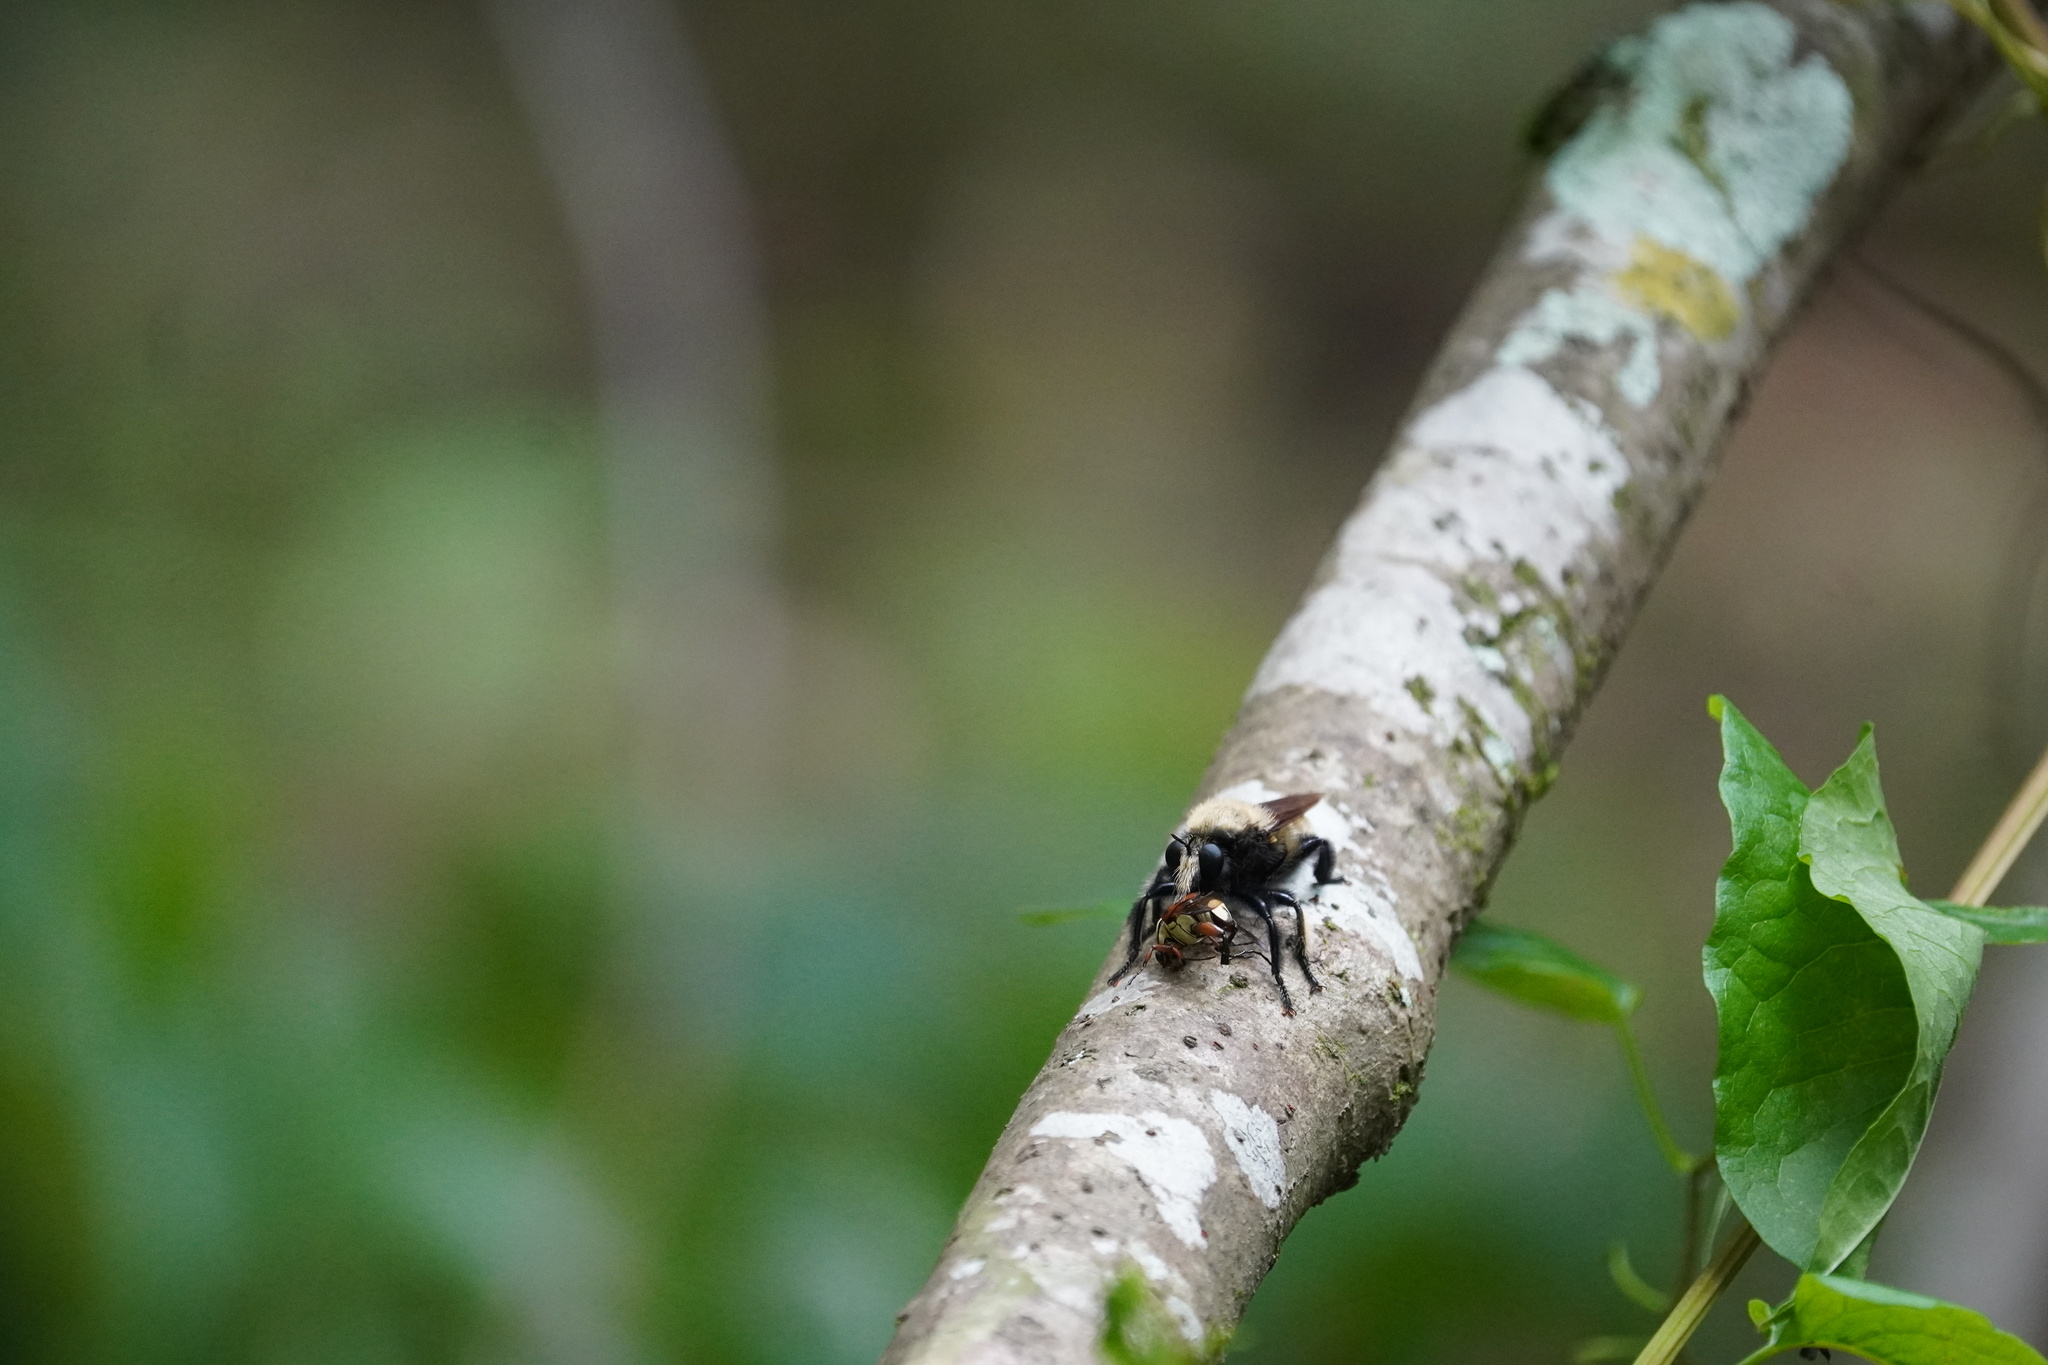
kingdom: Animalia
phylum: Arthropoda
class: Insecta
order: Diptera
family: Asilidae
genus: Laphria
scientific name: Laphria macquarti
